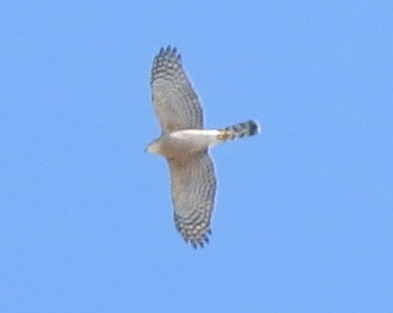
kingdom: Animalia
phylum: Chordata
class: Aves
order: Accipitriformes
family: Accipitridae
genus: Accipiter
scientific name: Accipiter striatus
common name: Sharp-shinned hawk
